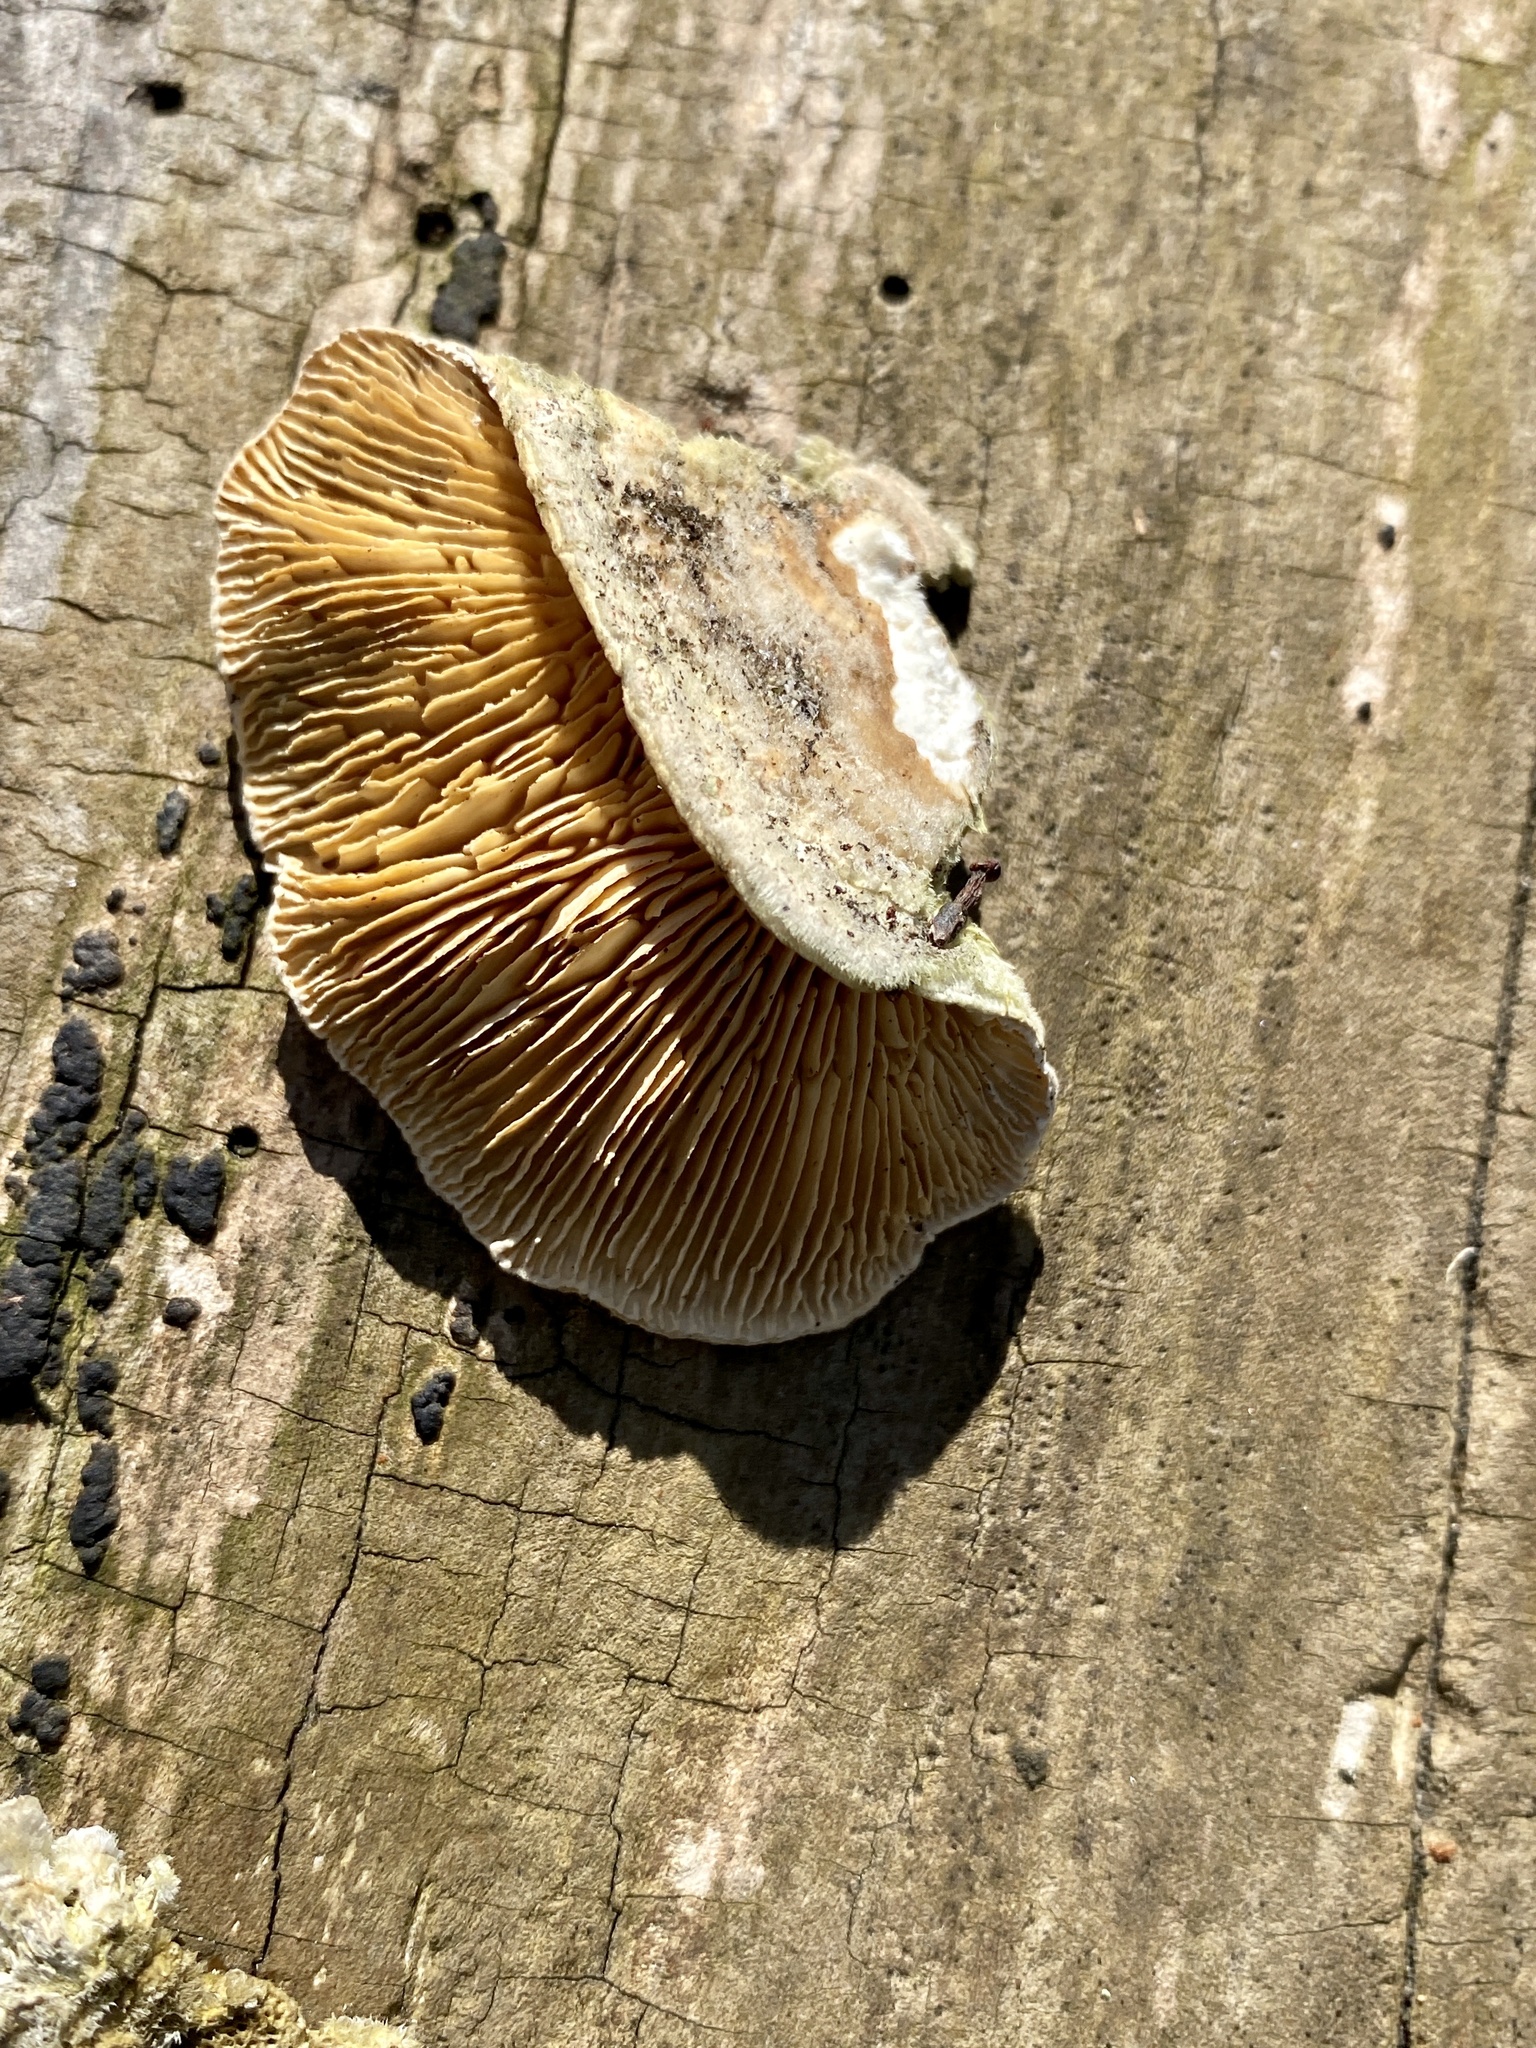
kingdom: Fungi
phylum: Basidiomycota
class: Agaricomycetes
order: Polyporales
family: Polyporaceae
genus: Lenzites
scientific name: Lenzites betulinus
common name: Birch mazegill
